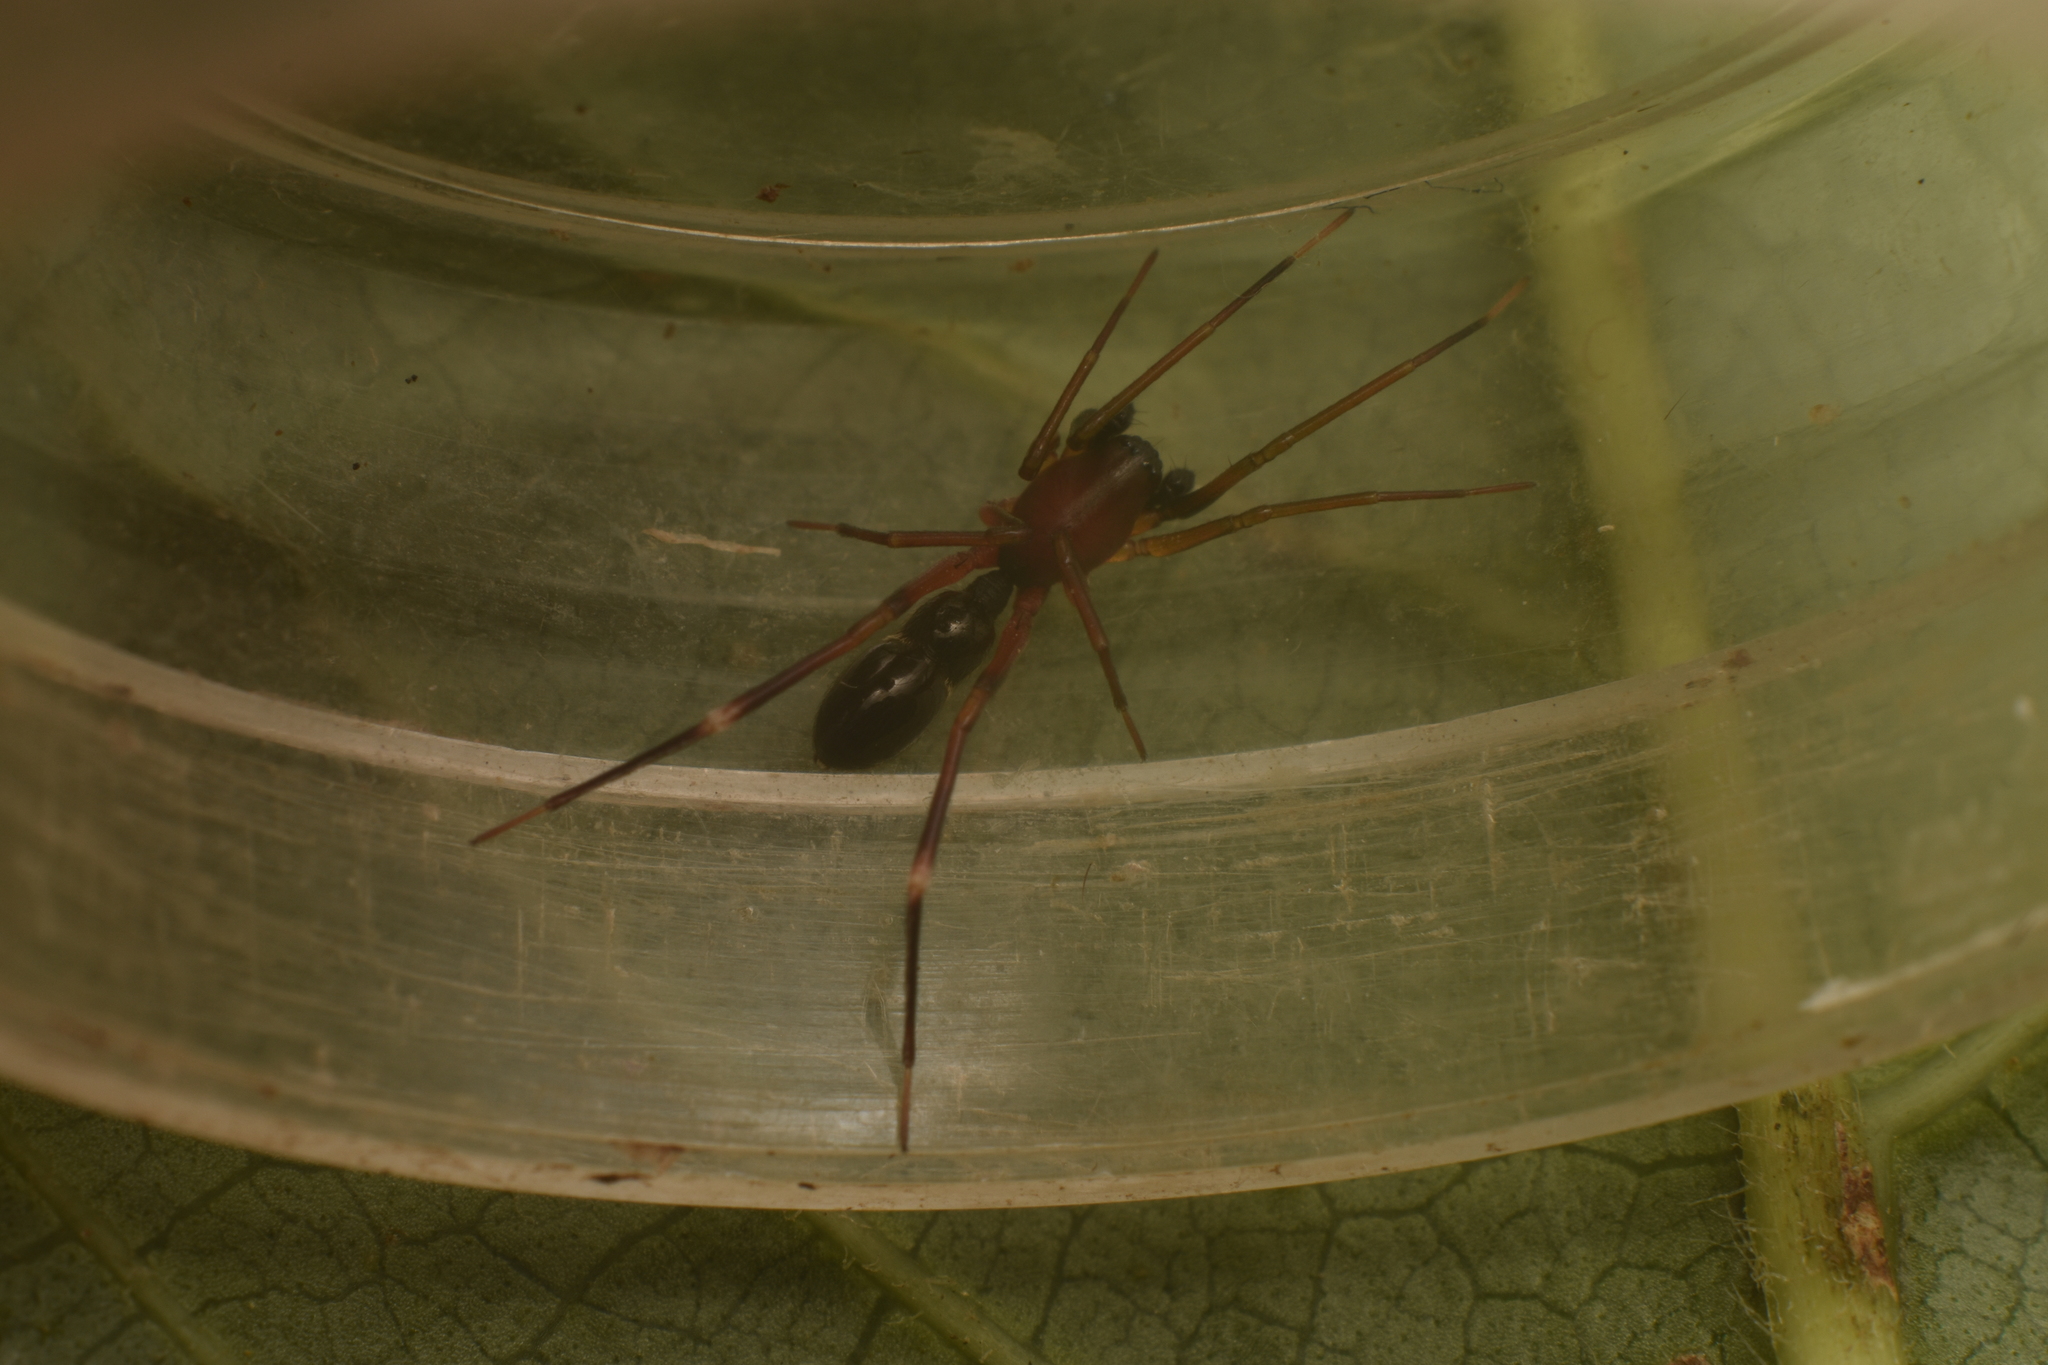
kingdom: Animalia
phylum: Arthropoda
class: Arachnida
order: Araneae
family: Corinnidae
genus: Mazax
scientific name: Mazax spinosa
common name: Corinnid sac spiders
